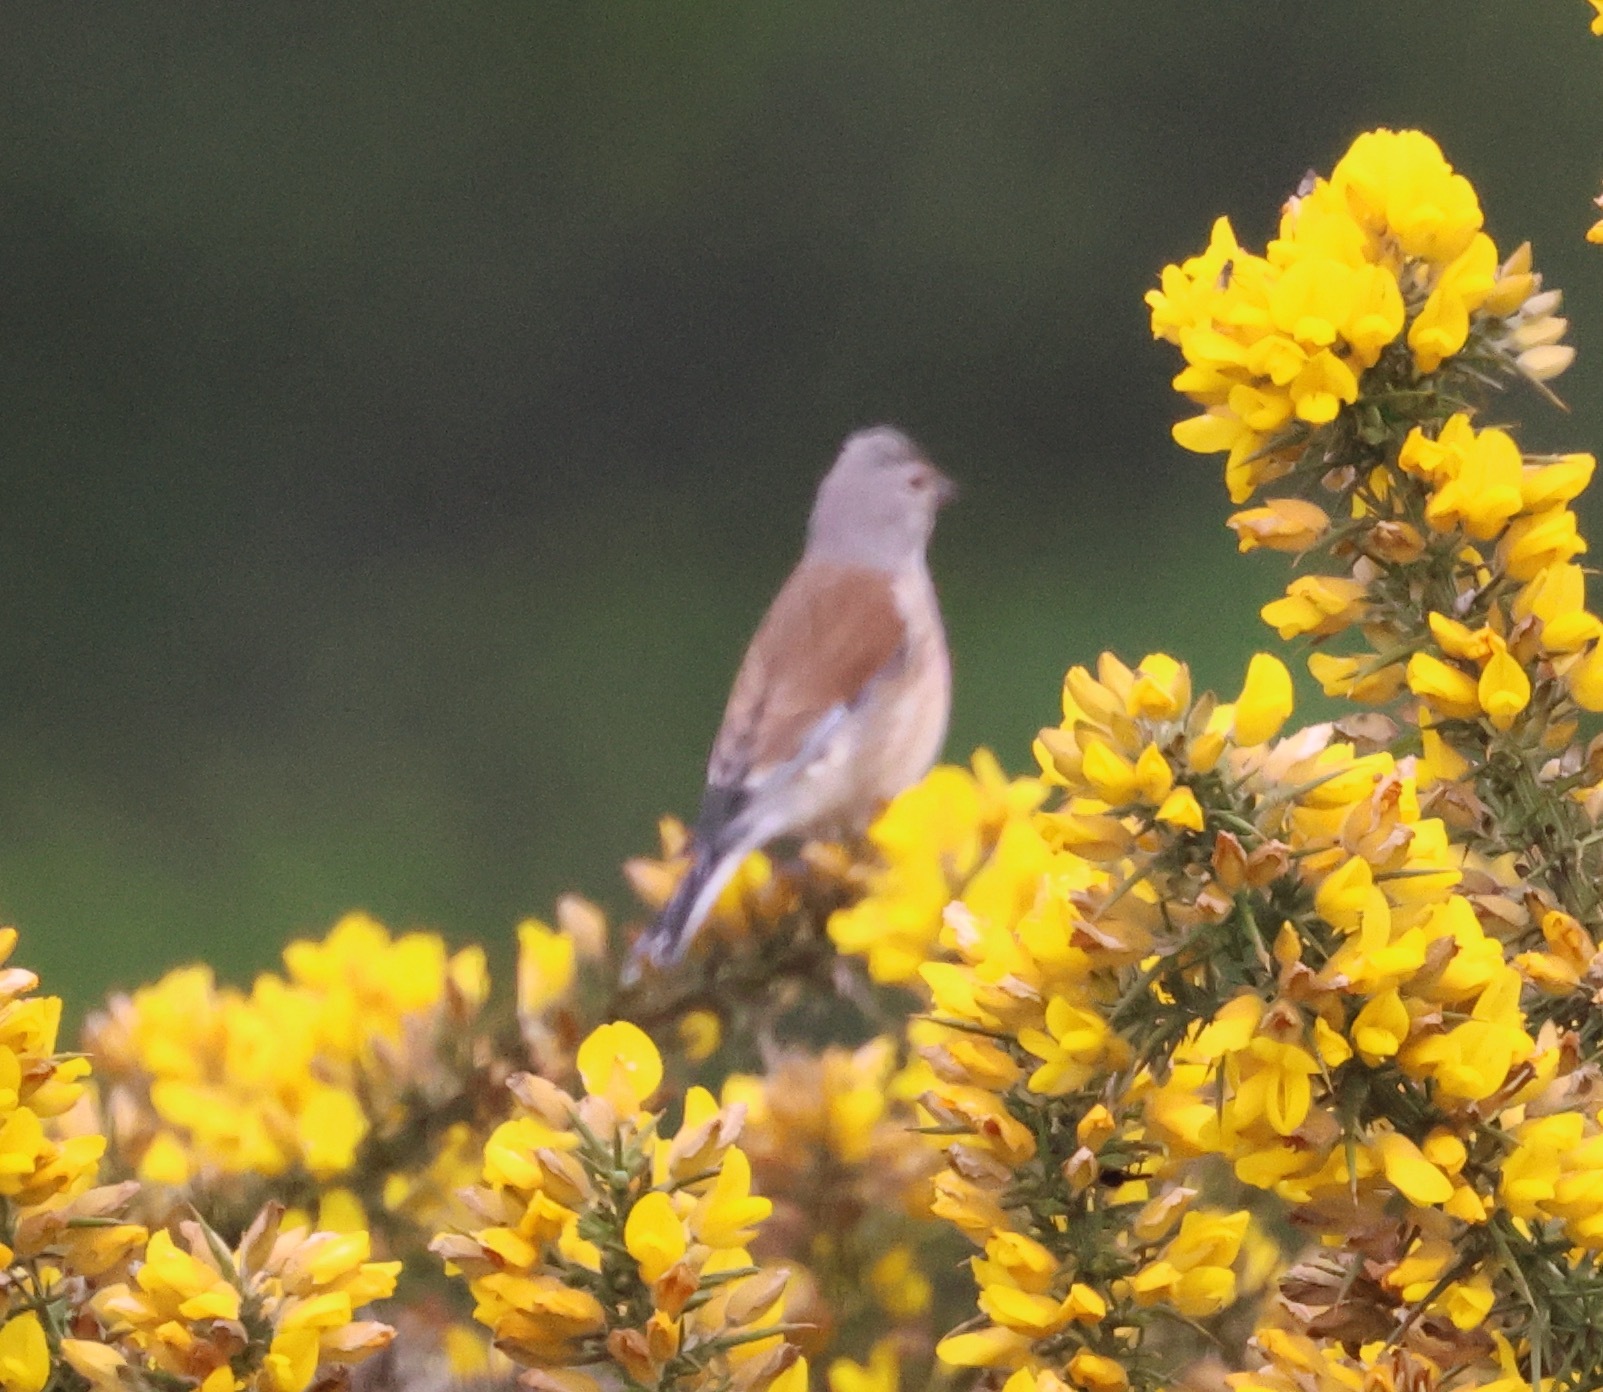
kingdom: Animalia
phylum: Chordata
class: Aves
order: Passeriformes
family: Fringillidae
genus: Linaria
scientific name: Linaria cannabina
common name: Common linnet
